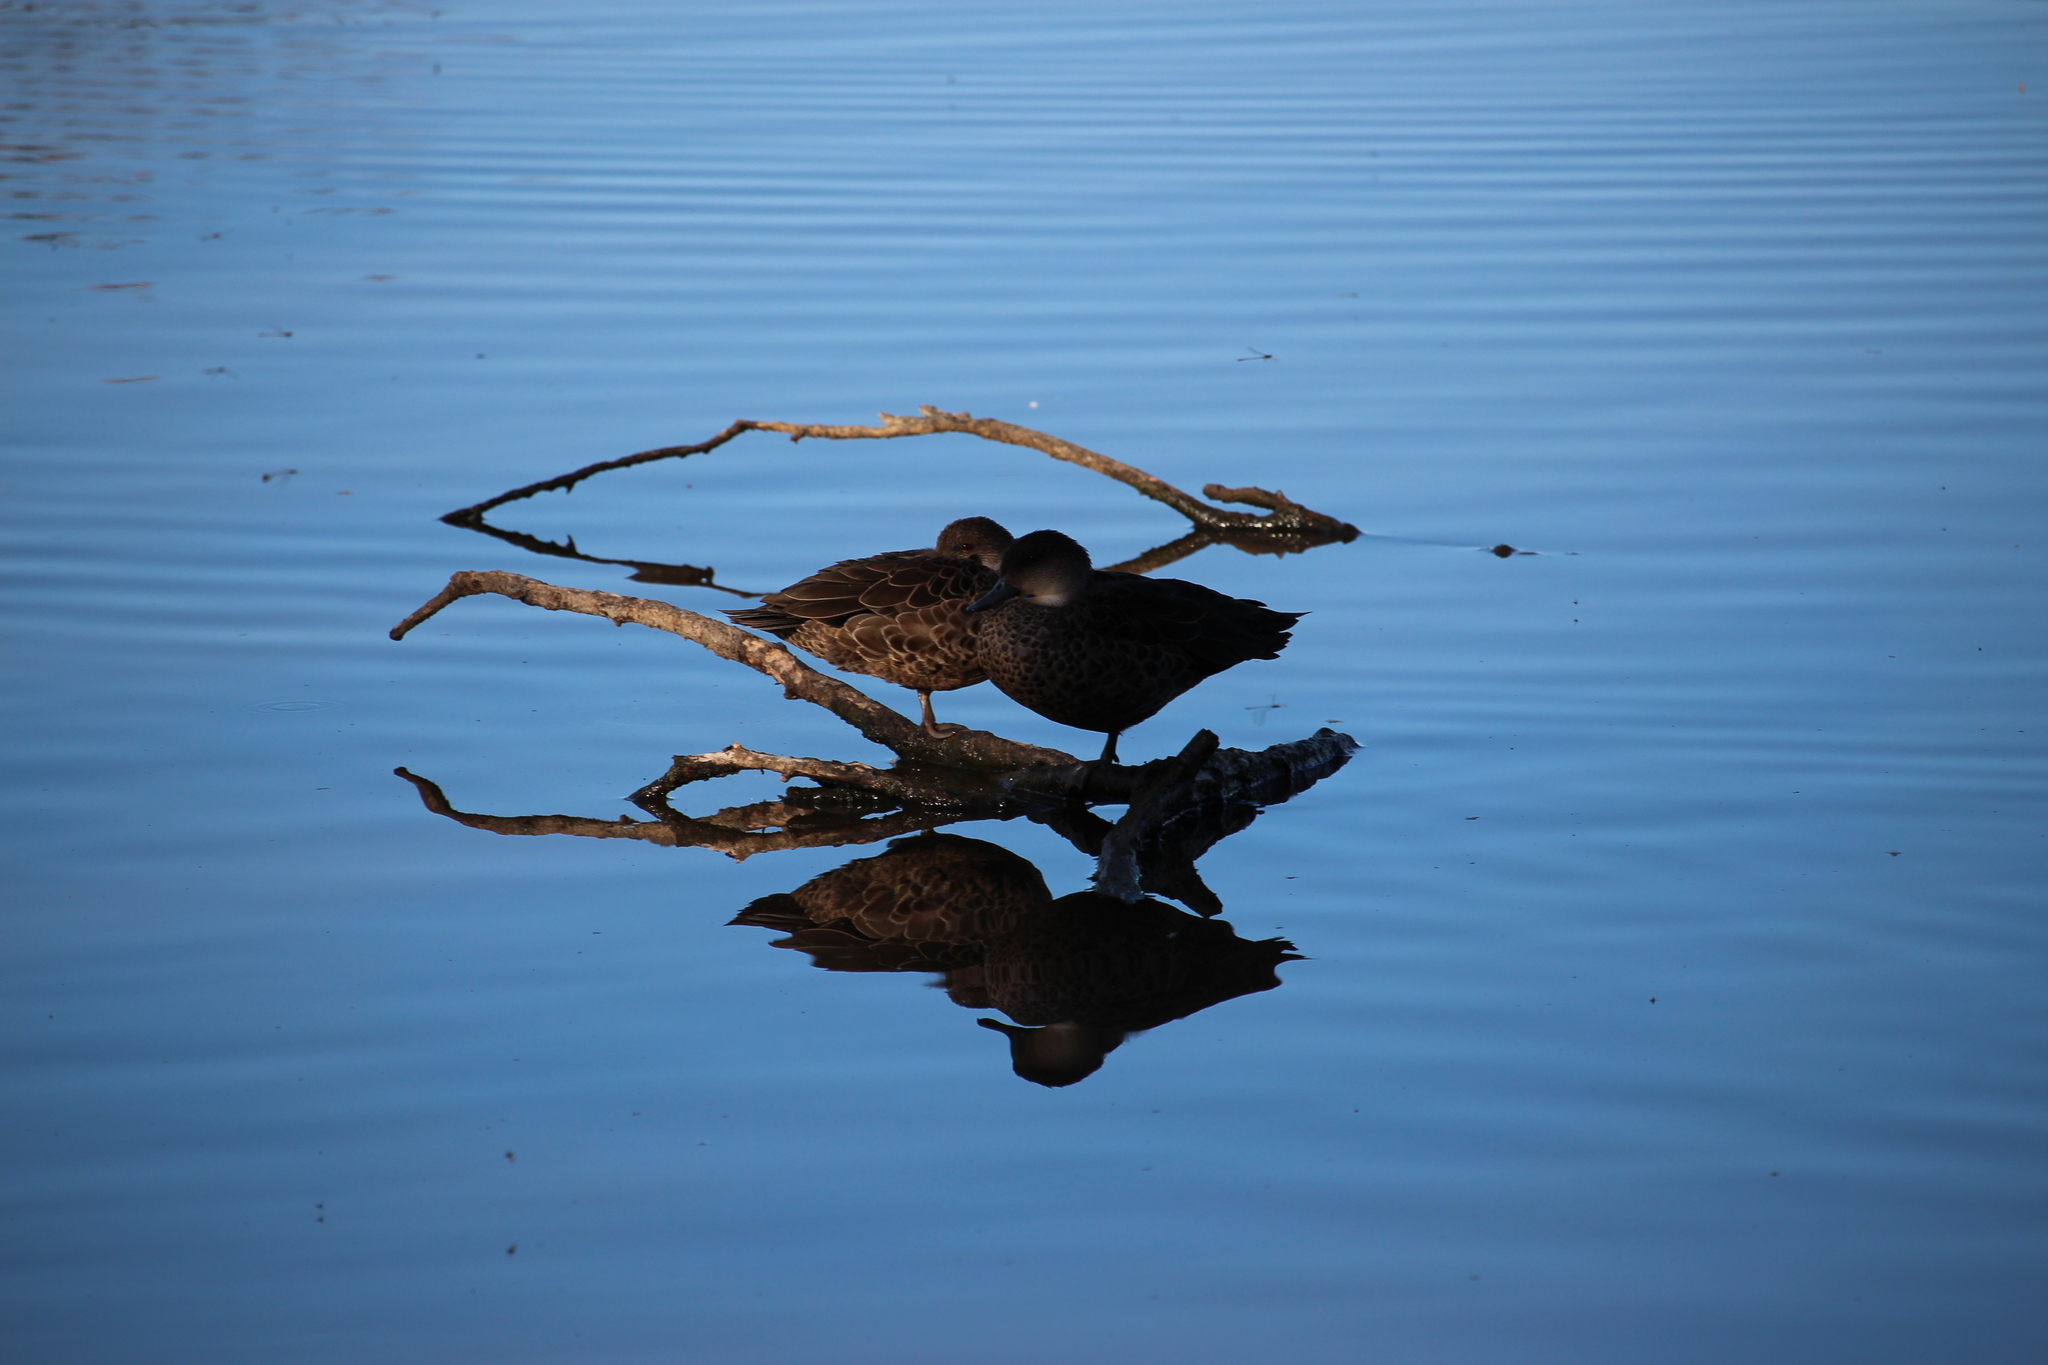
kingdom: Animalia
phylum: Chordata
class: Aves
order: Anseriformes
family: Anatidae
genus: Anas
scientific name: Anas gracilis
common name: Grey teal
